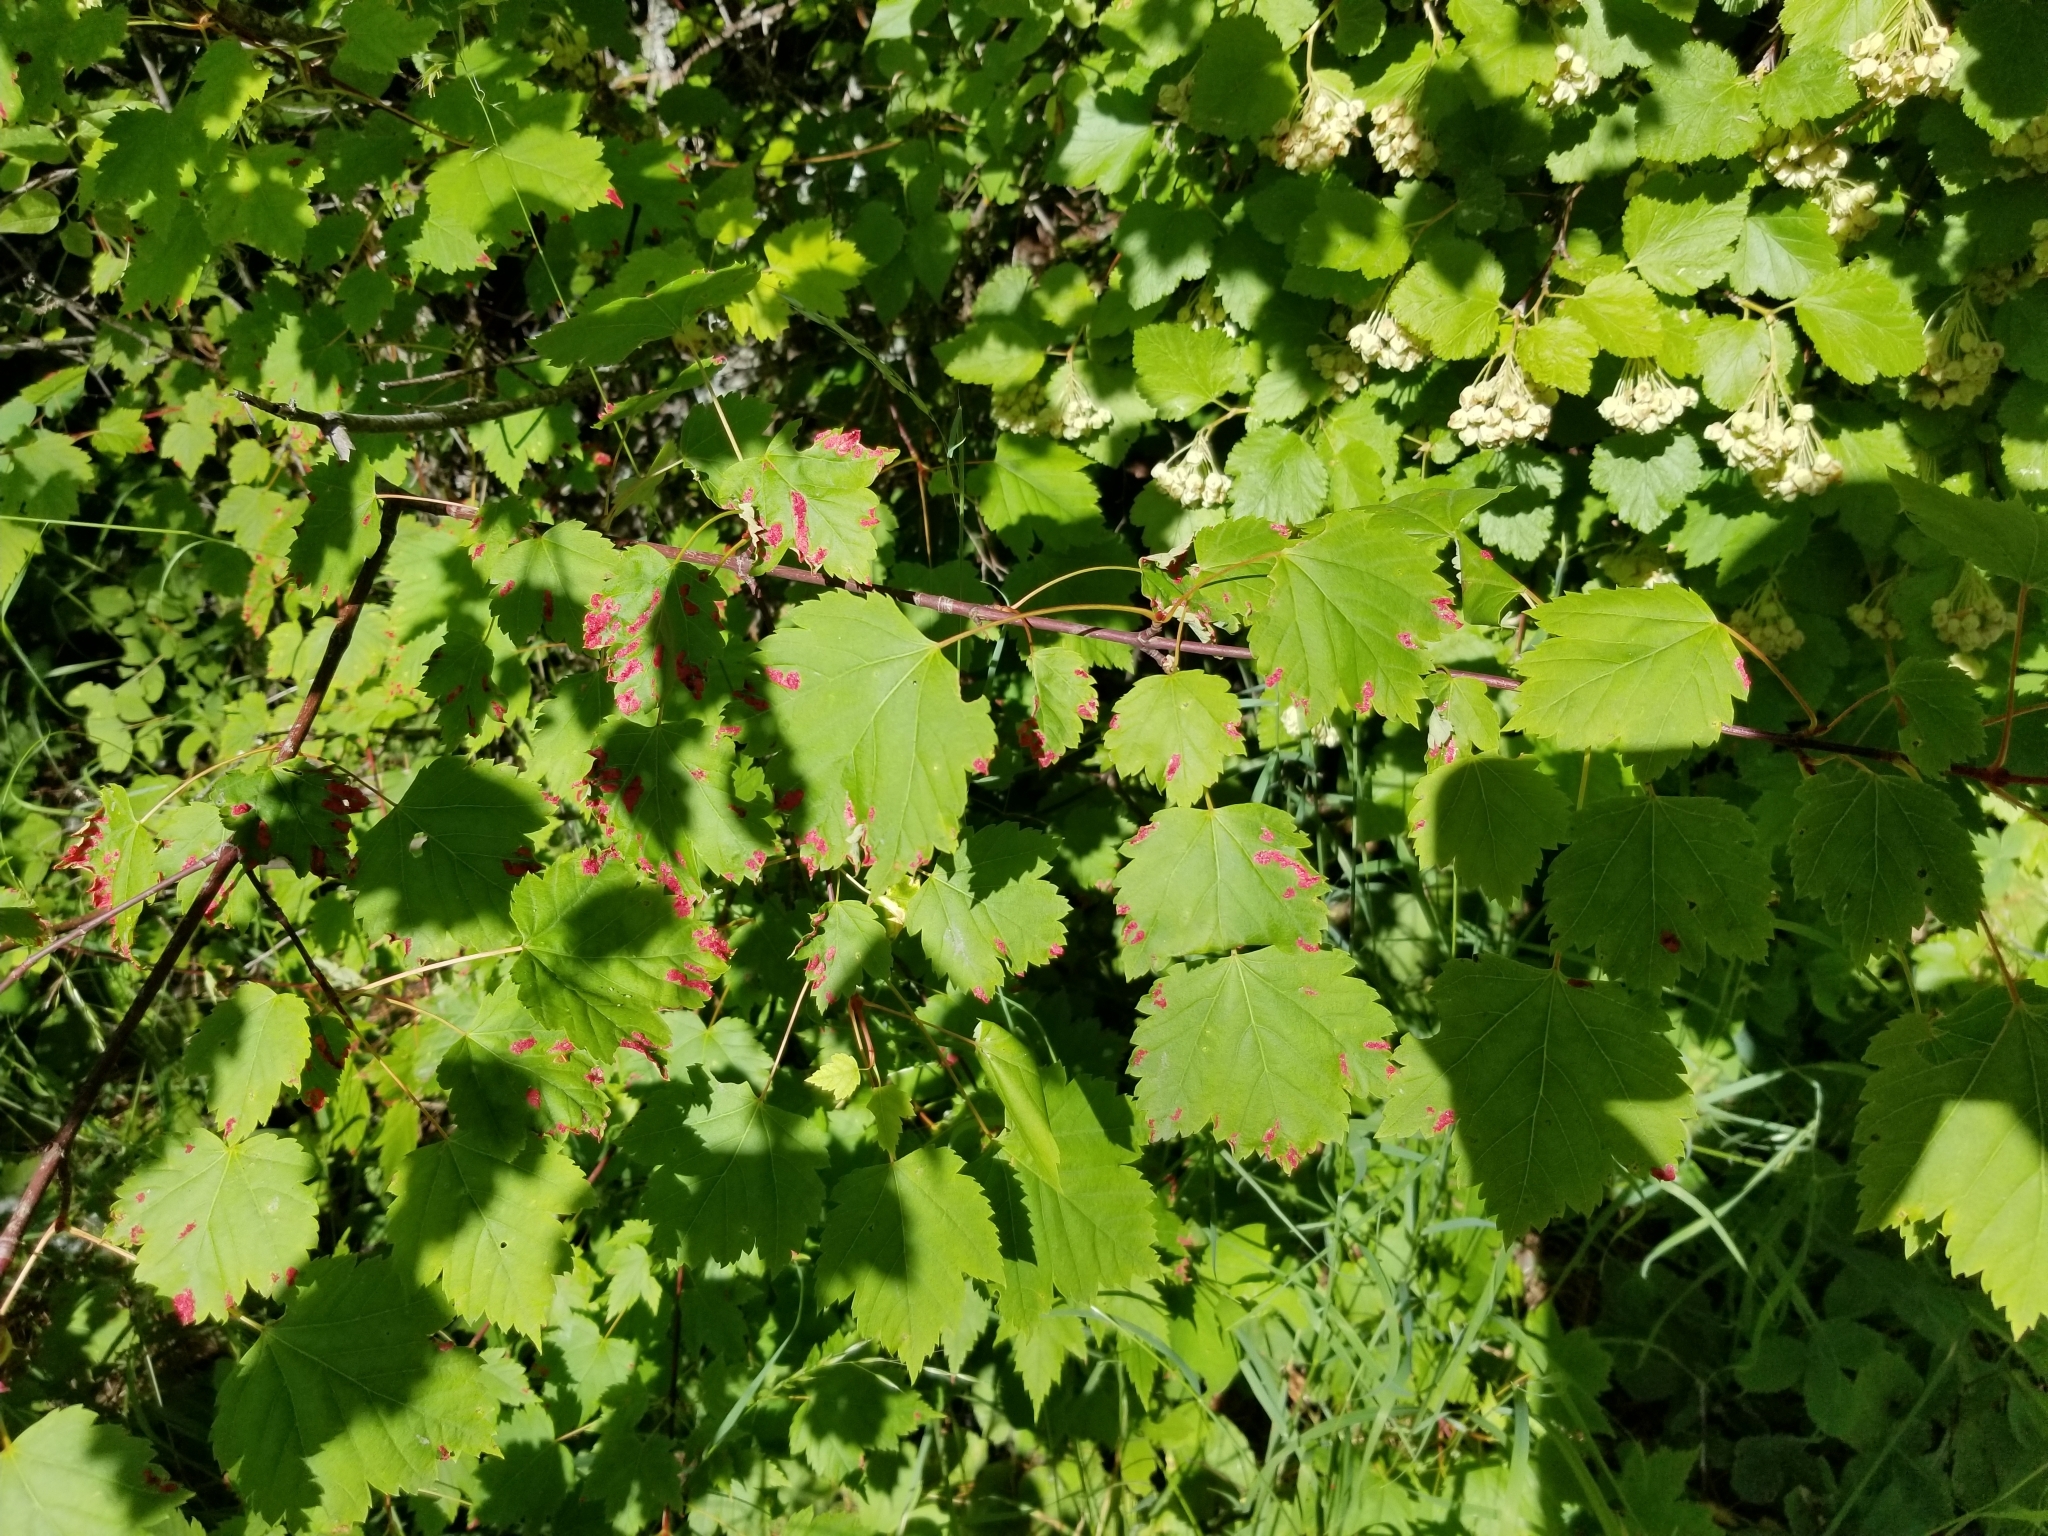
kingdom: Animalia
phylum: Arthropoda
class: Arachnida
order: Trombidiformes
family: Eriophyidae
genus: Aceria
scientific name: Aceria
